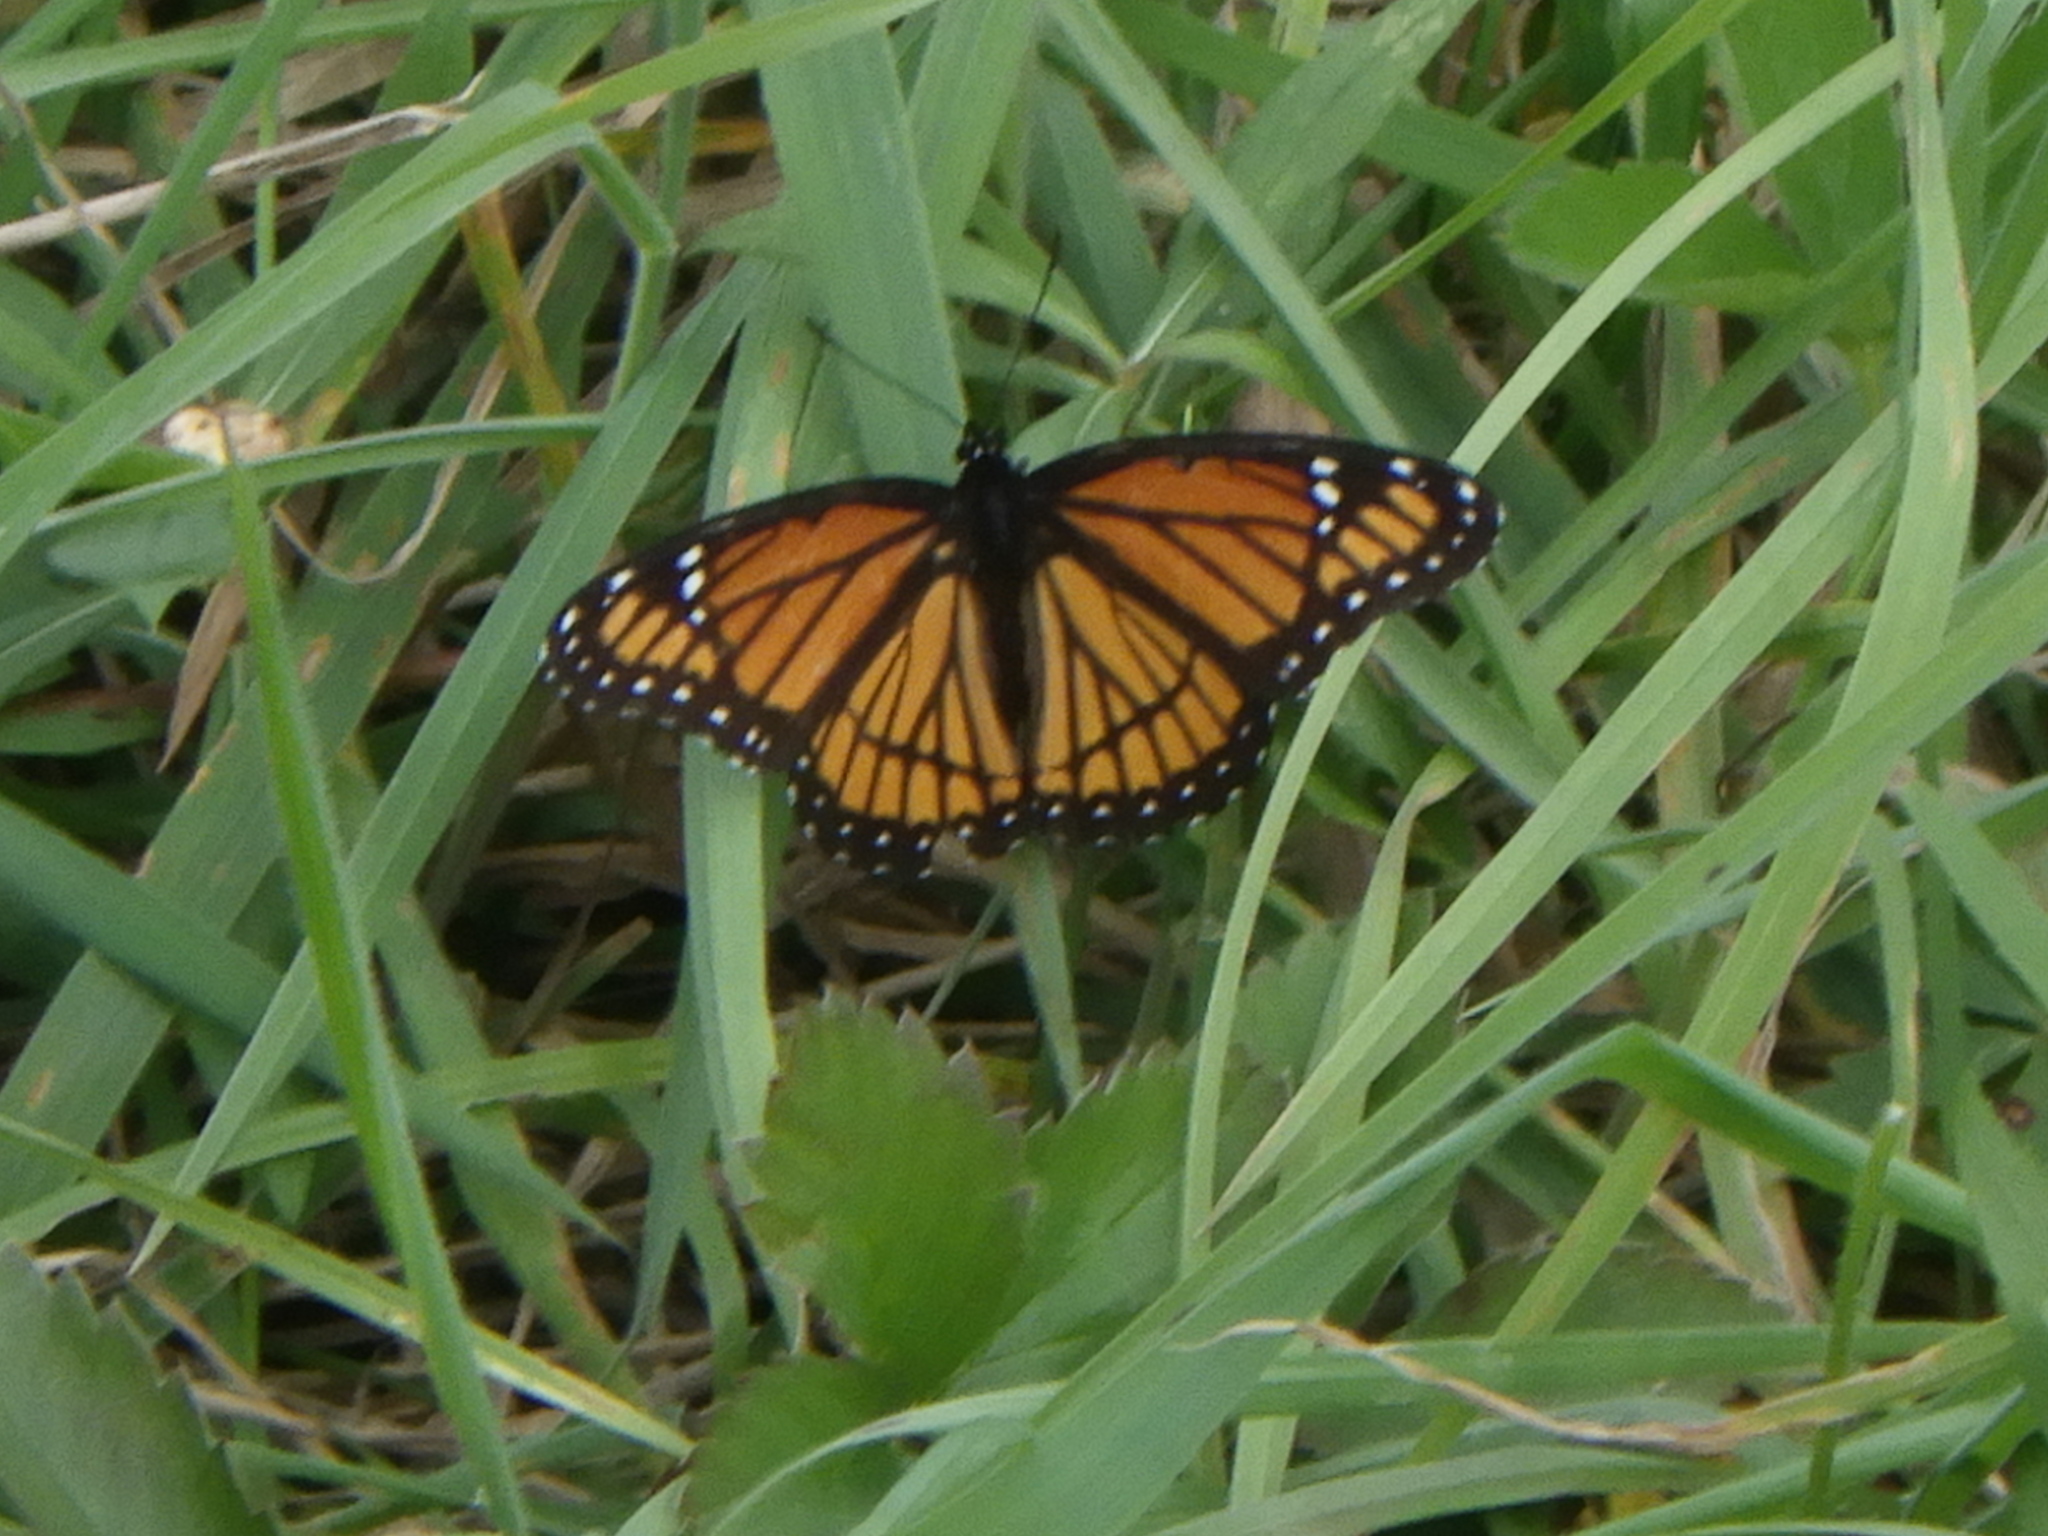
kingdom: Animalia
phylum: Arthropoda
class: Insecta
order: Lepidoptera
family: Nymphalidae
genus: Limenitis
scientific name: Limenitis archippus
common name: Viceroy
